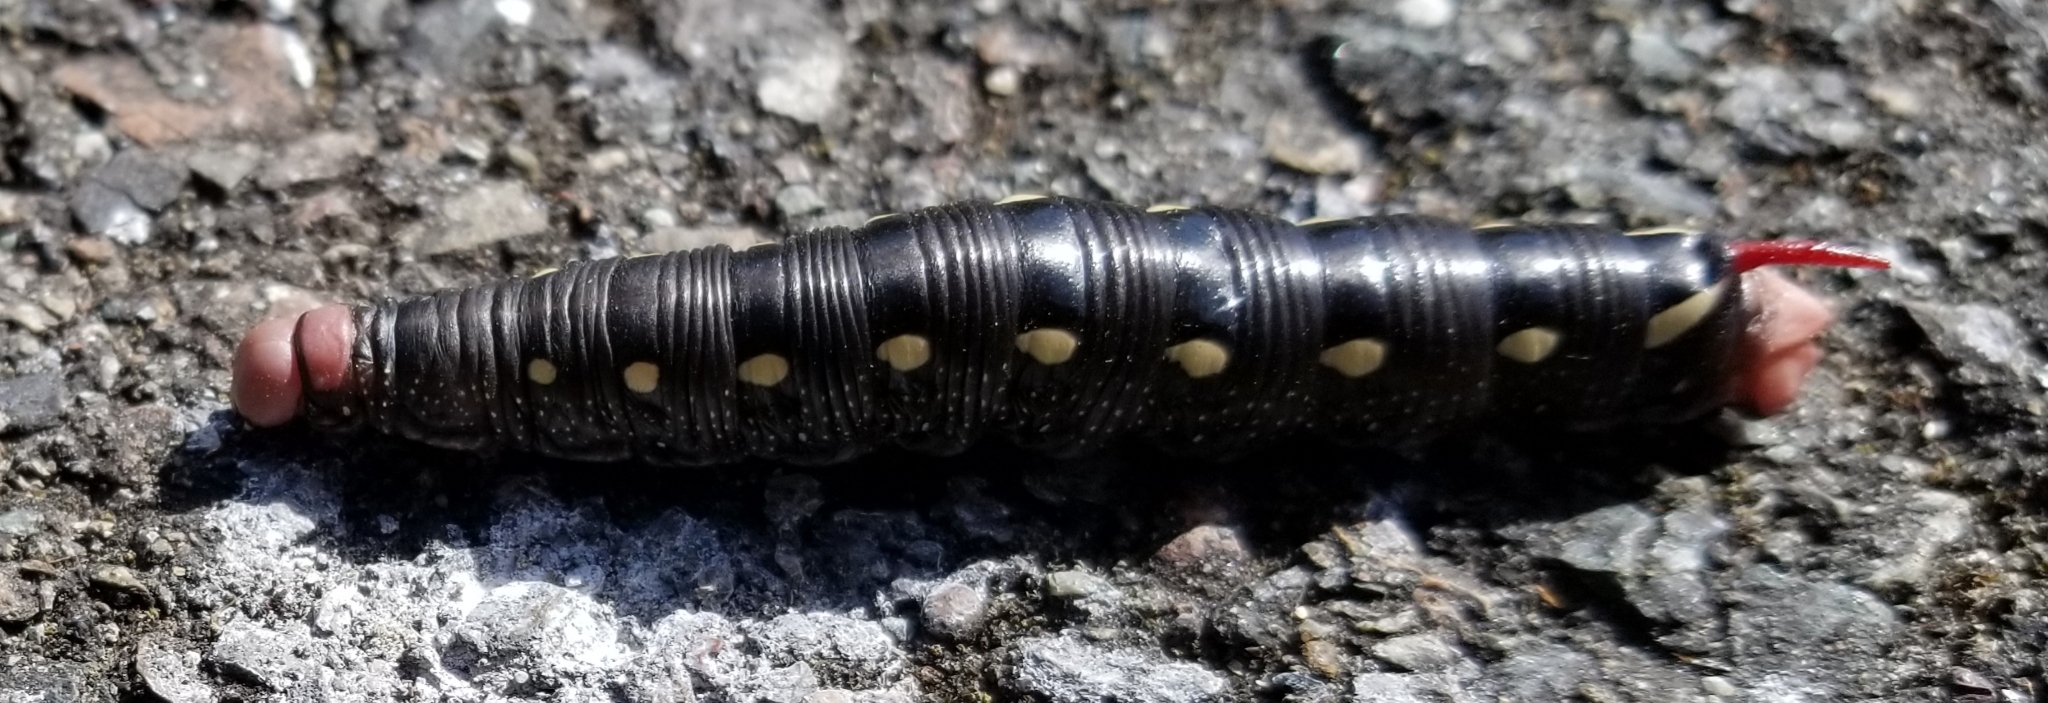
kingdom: Animalia
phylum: Arthropoda
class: Insecta
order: Lepidoptera
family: Sphingidae
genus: Hyles
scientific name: Hyles gallii
